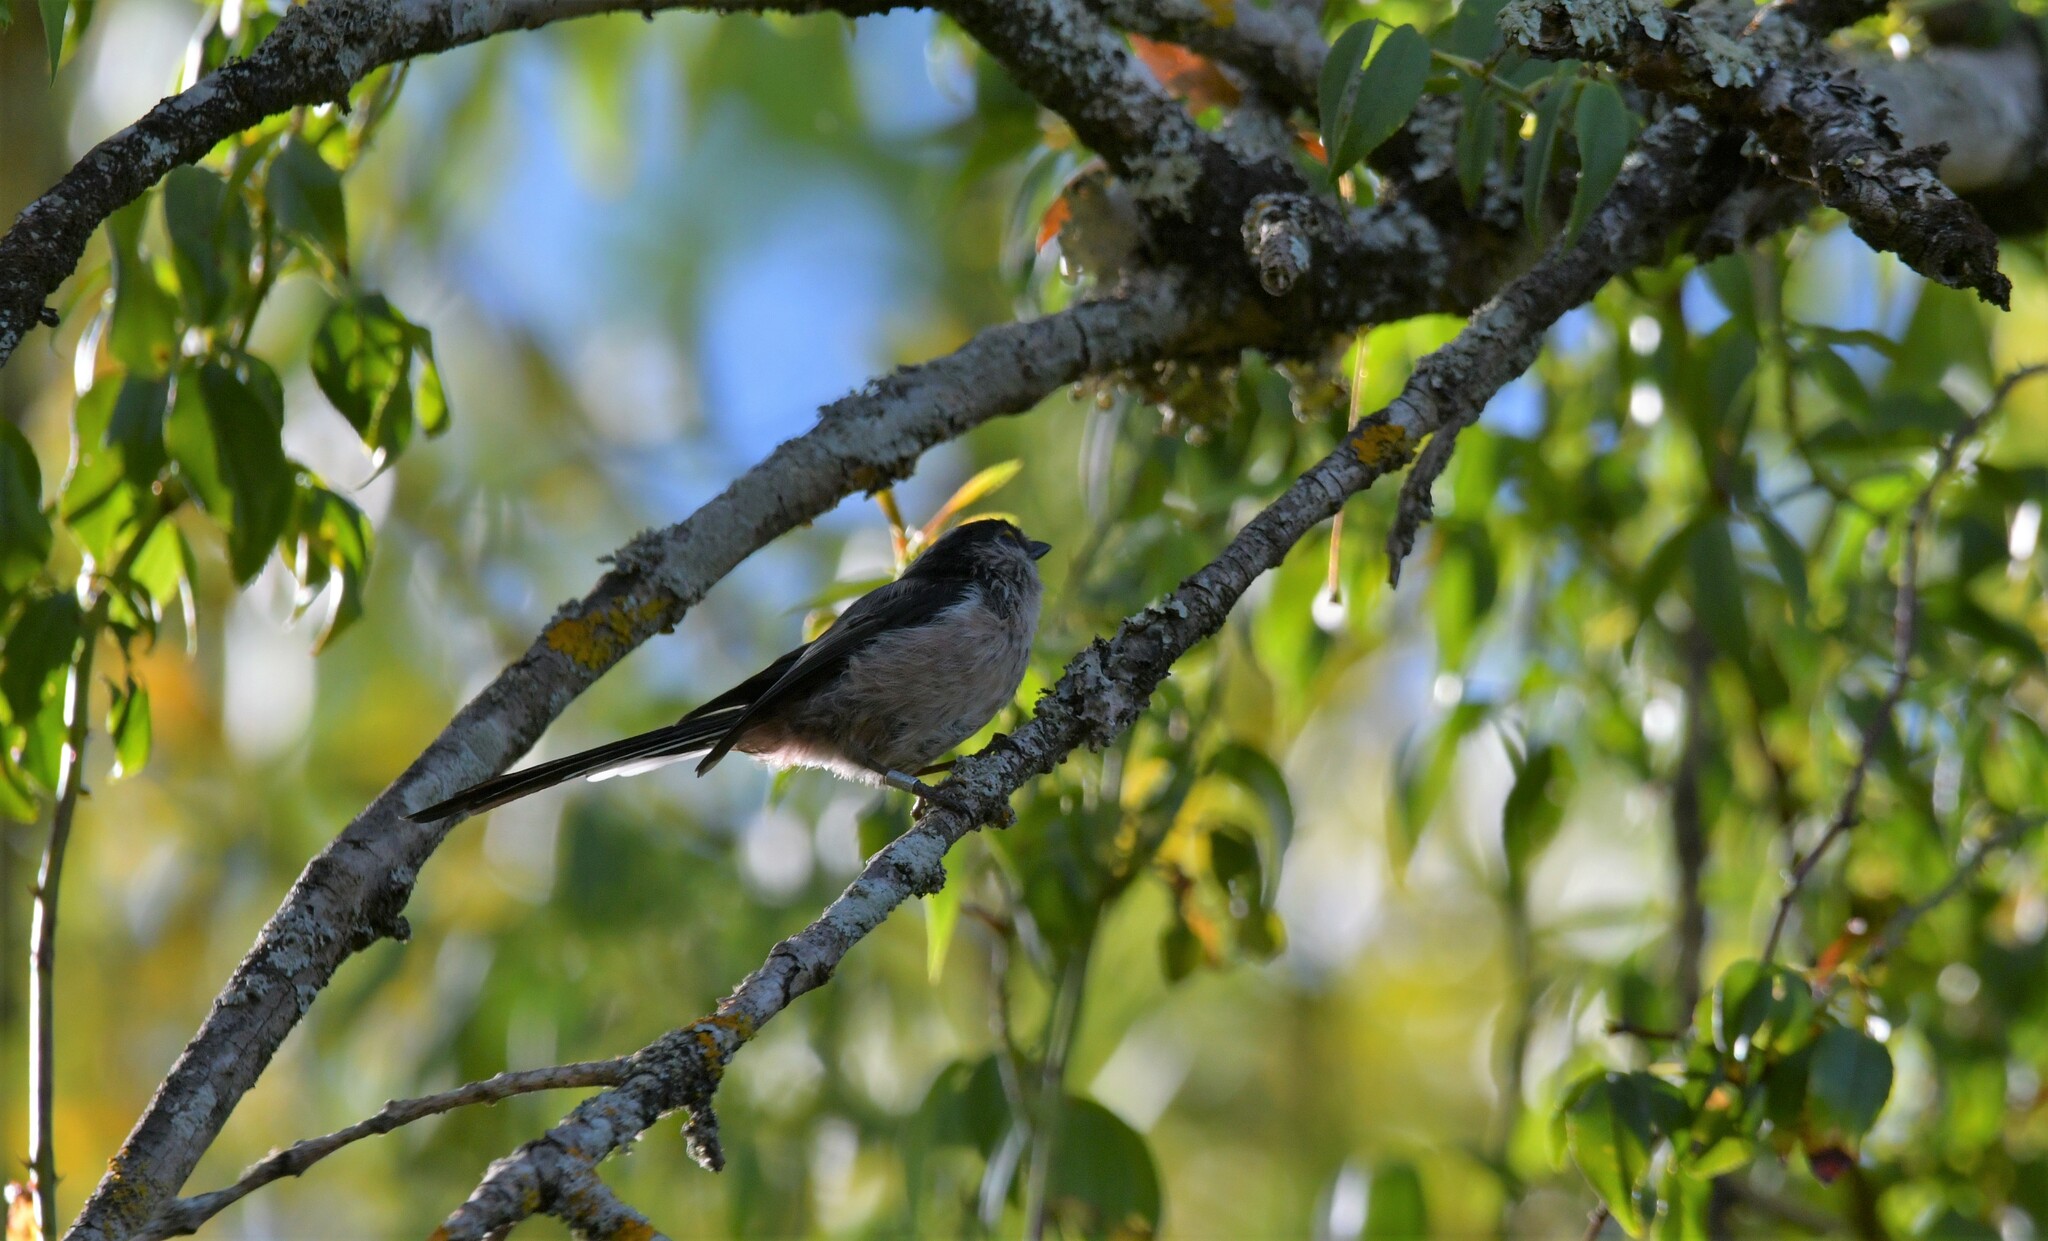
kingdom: Animalia
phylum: Chordata
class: Aves
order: Passeriformes
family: Aegithalidae
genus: Aegithalos
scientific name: Aegithalos caudatus
